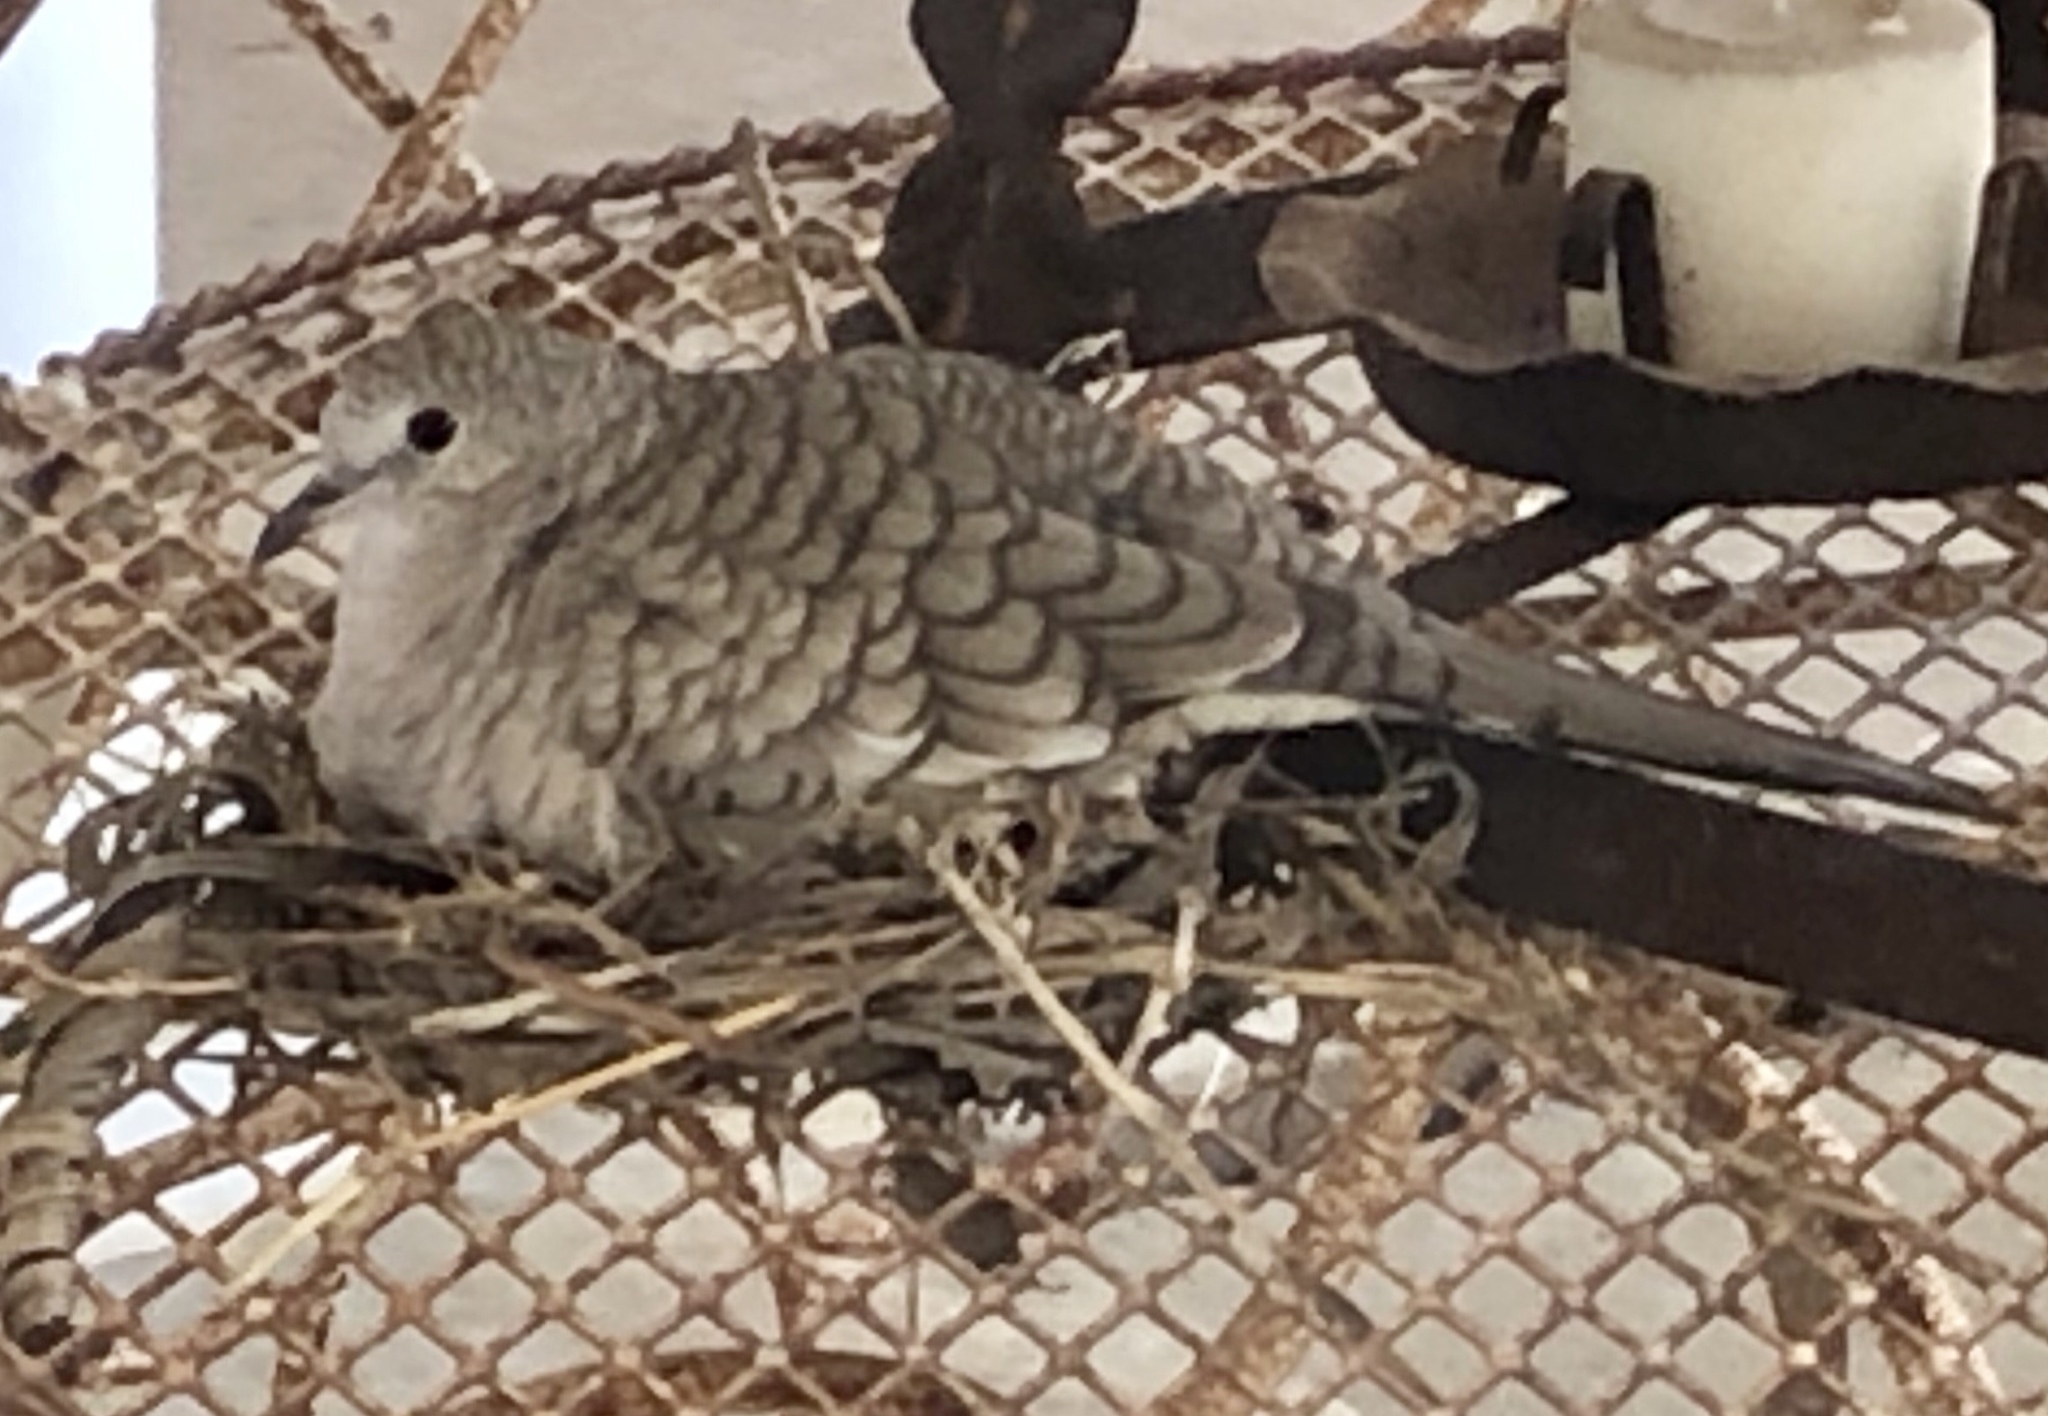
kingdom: Animalia
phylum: Chordata
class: Aves
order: Columbiformes
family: Columbidae
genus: Columbina
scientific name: Columbina inca
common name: Inca dove
